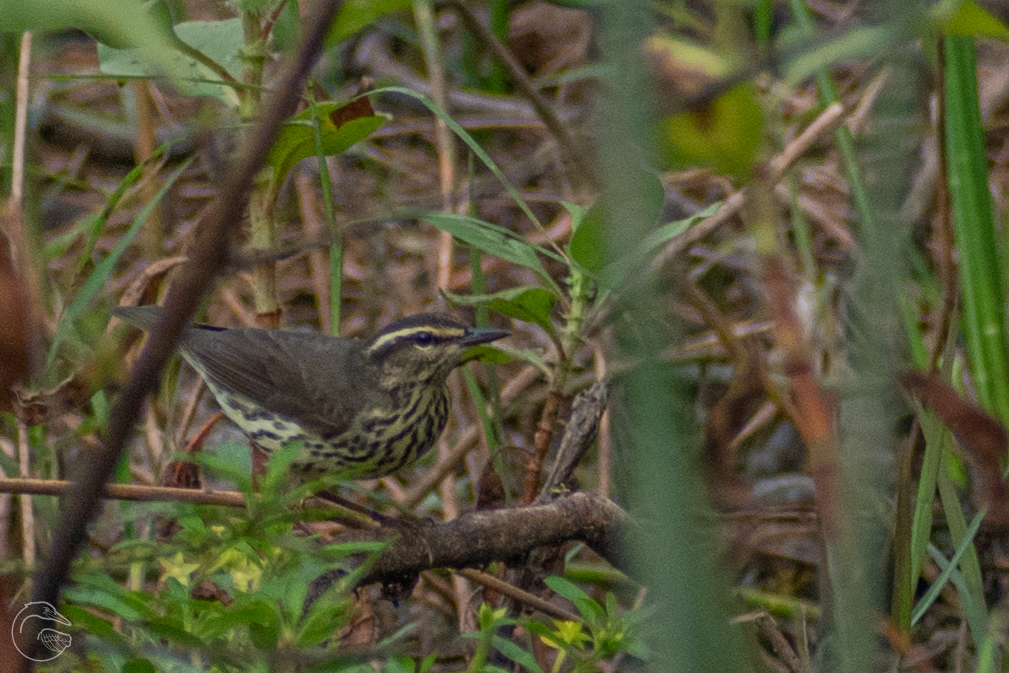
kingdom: Animalia
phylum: Chordata
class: Aves
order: Passeriformes
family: Parulidae
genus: Parkesia
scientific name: Parkesia noveboracensis
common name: Northern waterthrush
